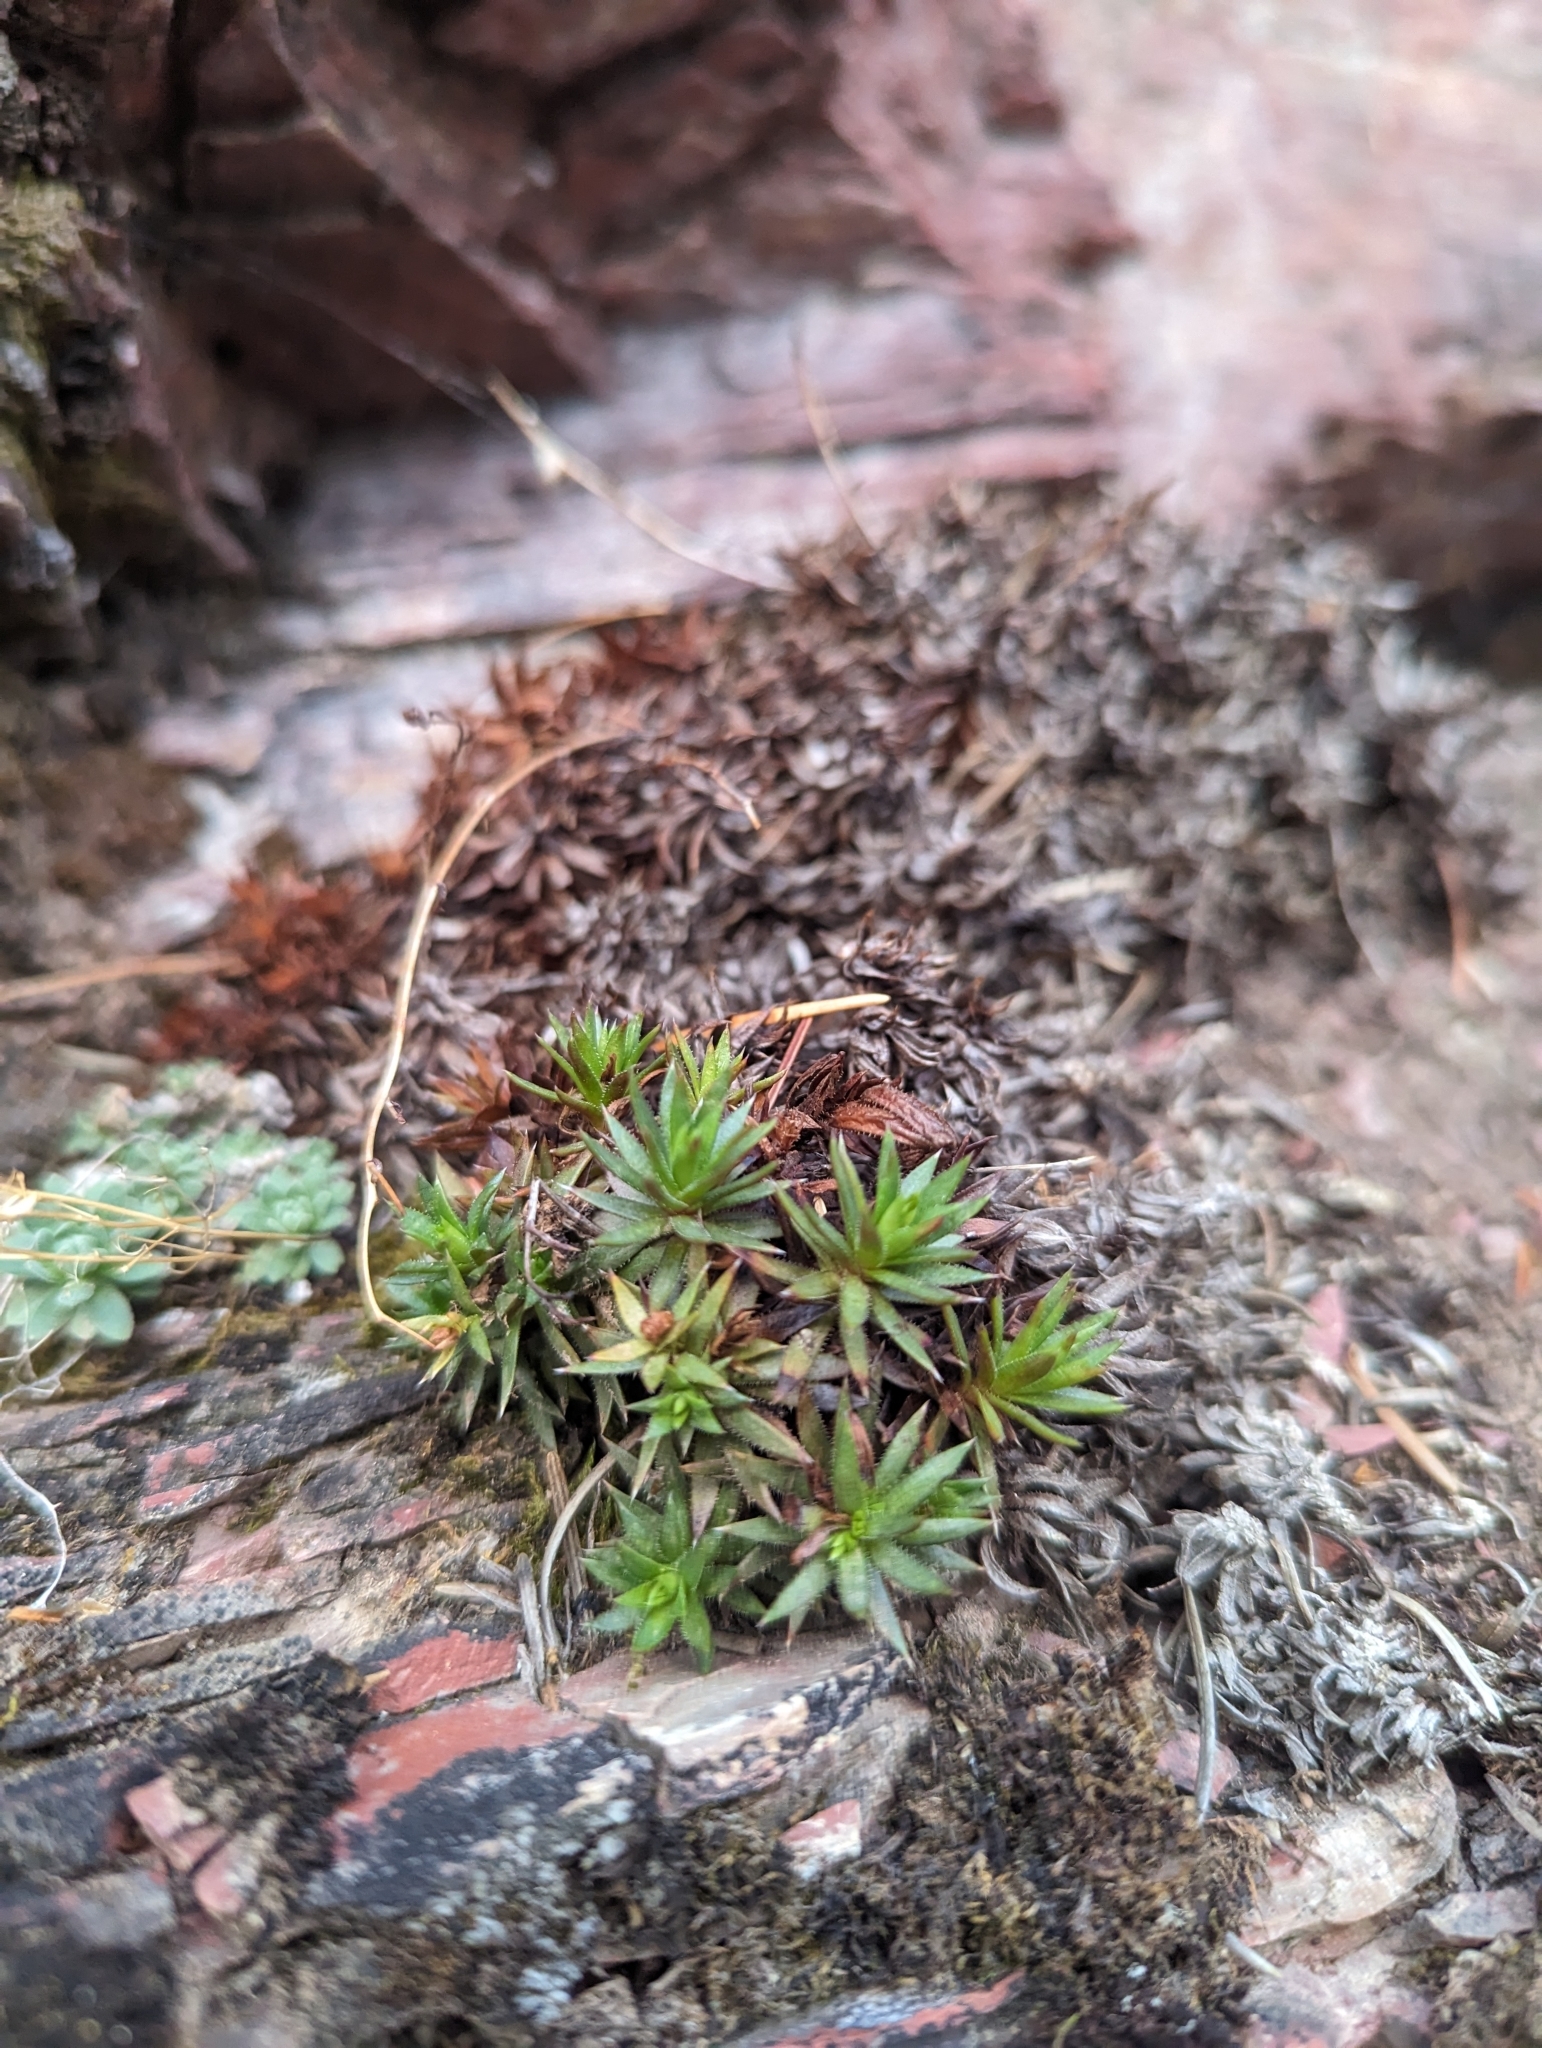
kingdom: Plantae
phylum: Tracheophyta
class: Magnoliopsida
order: Saxifragales
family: Saxifragaceae
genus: Saxifraga
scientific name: Saxifraga bronchialis
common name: Matted saxifrage
